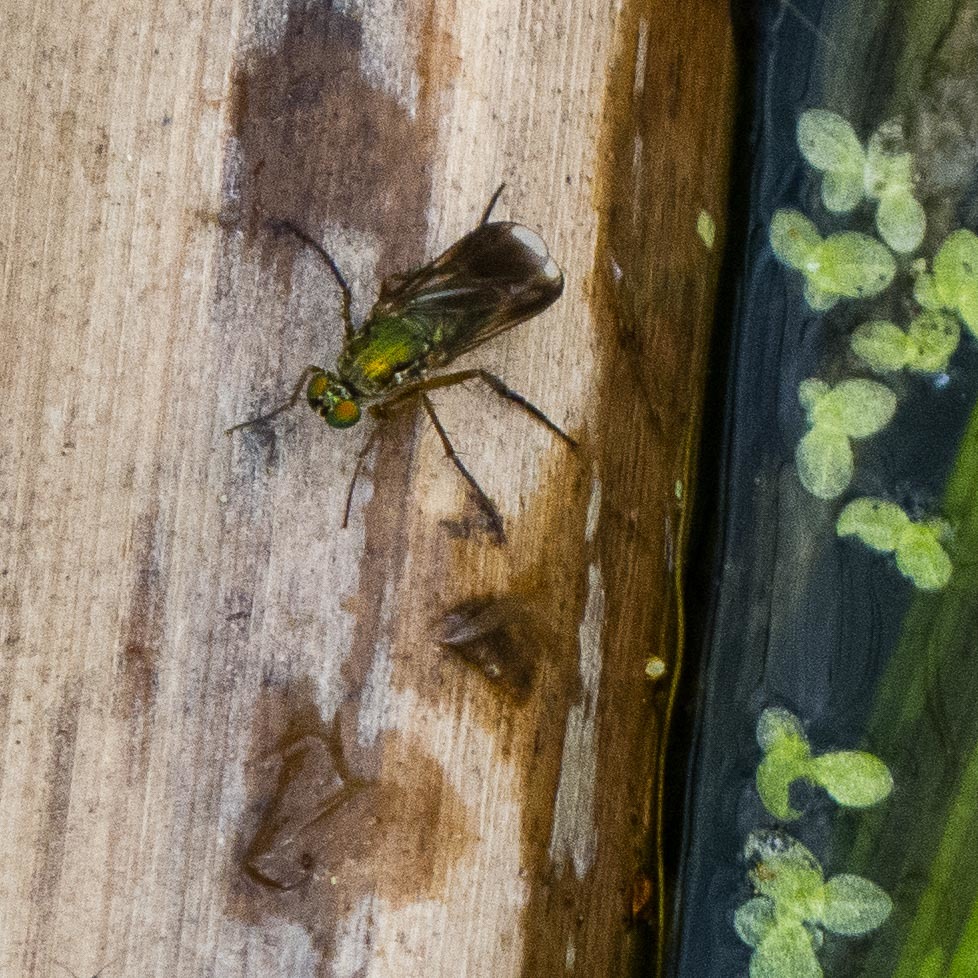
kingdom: Animalia
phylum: Arthropoda
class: Insecta
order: Diptera
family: Dolichopodidae
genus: Poecilobothrus
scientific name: Poecilobothrus nobilitatus
